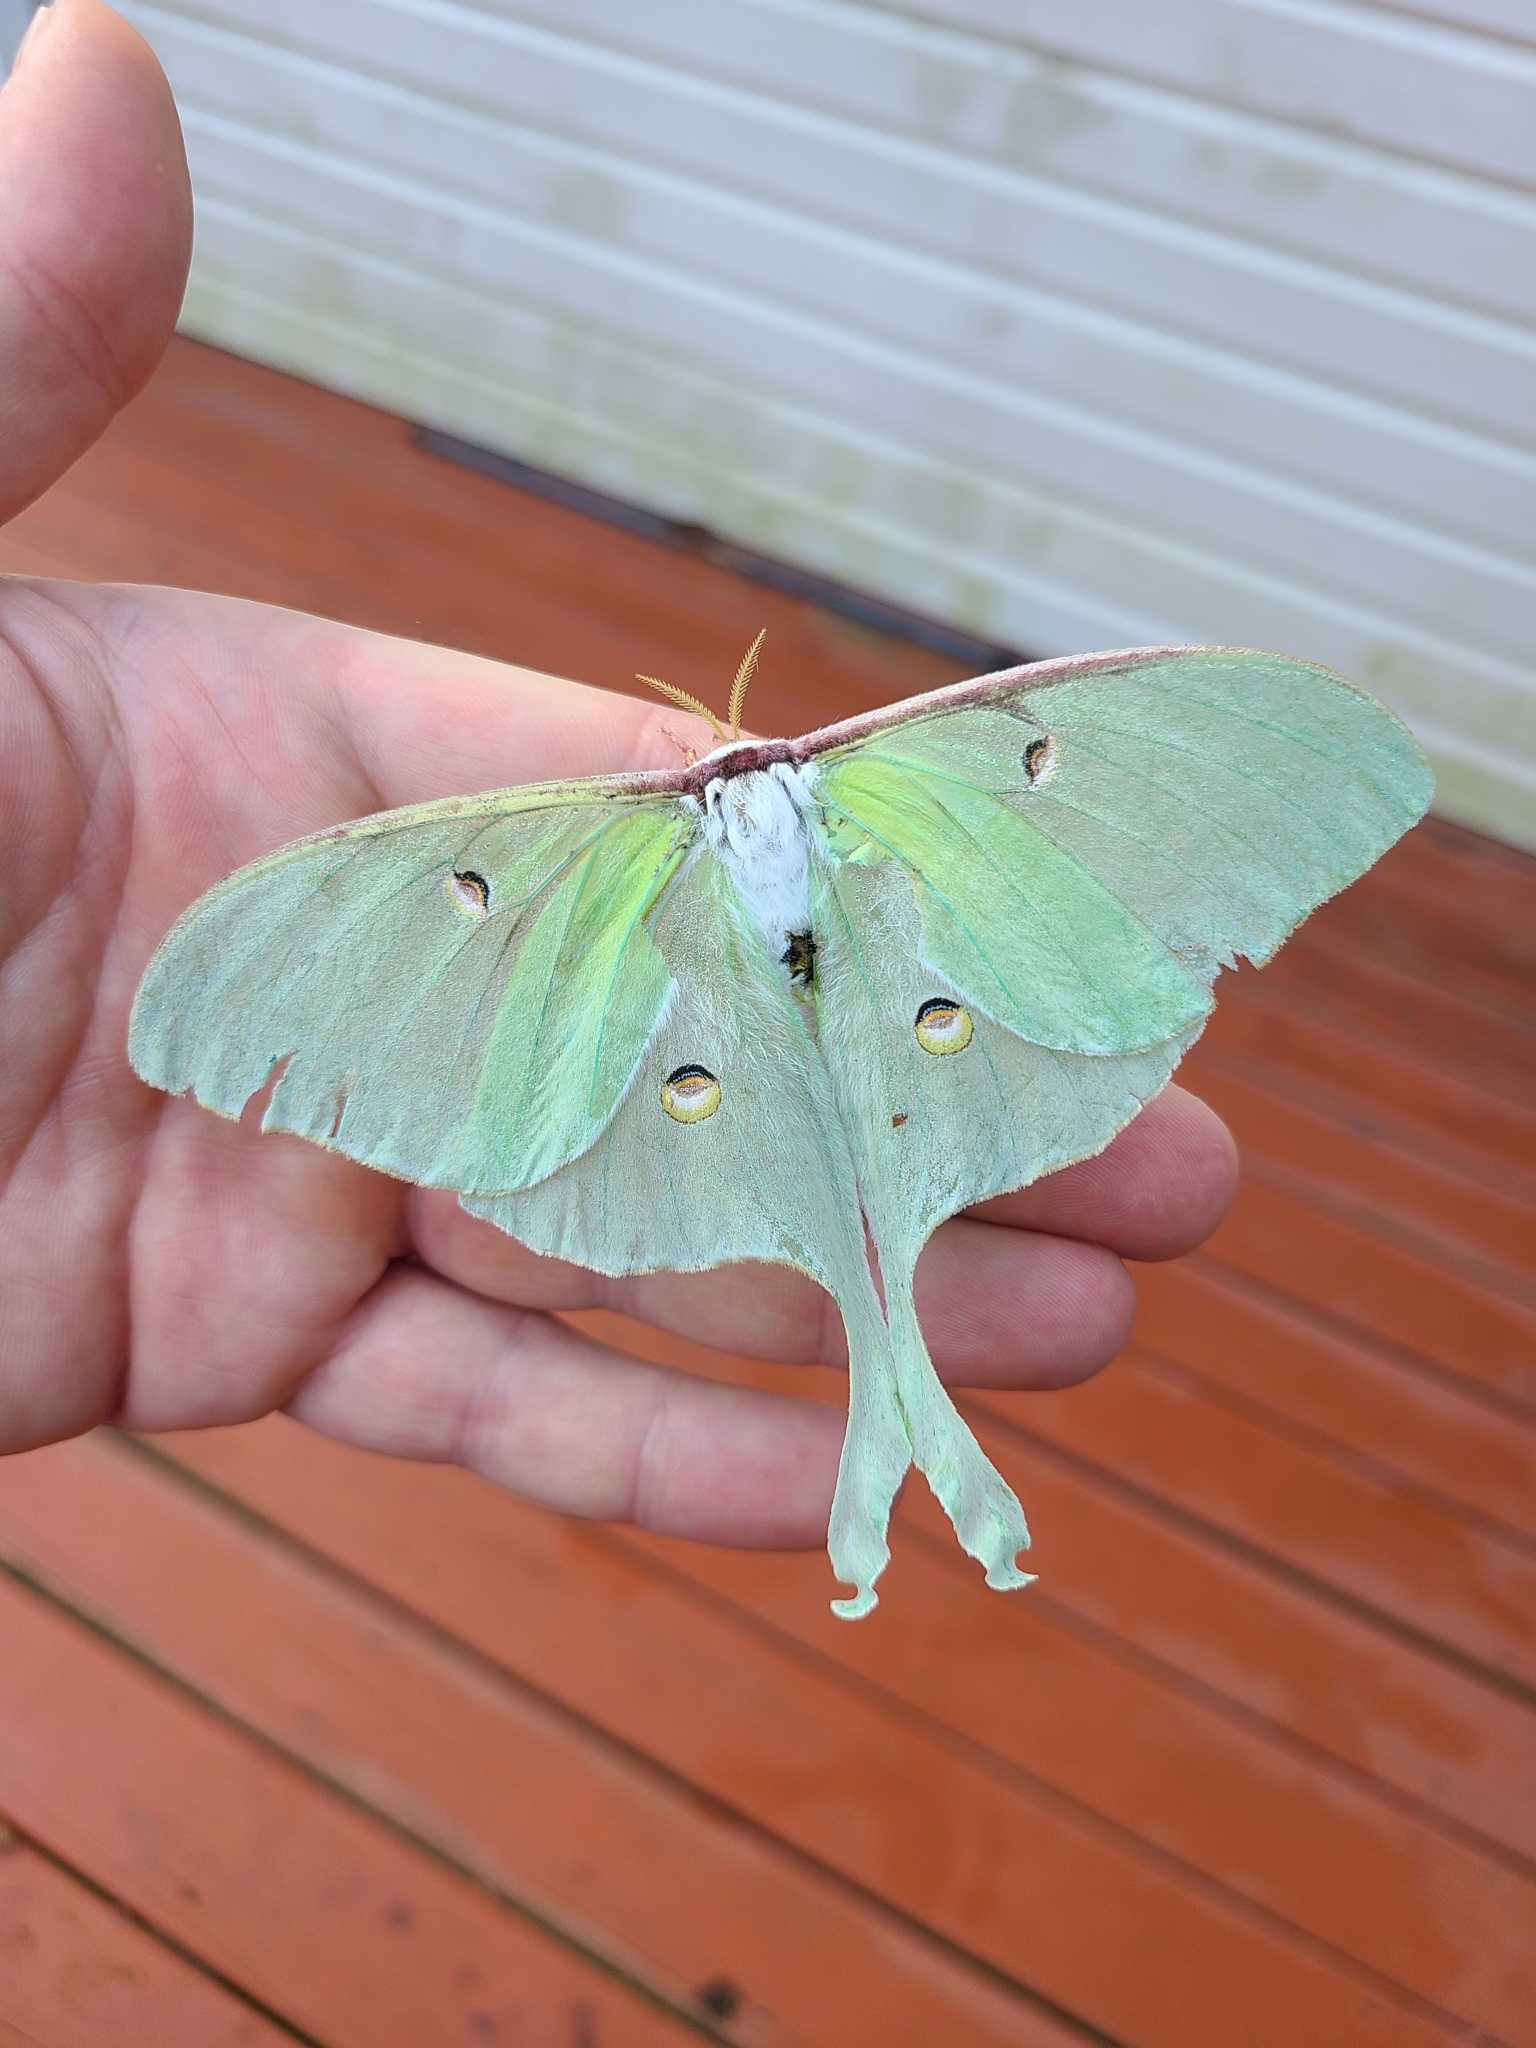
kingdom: Animalia
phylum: Arthropoda
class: Insecta
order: Lepidoptera
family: Saturniidae
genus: Actias
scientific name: Actias luna
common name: Luna moth
